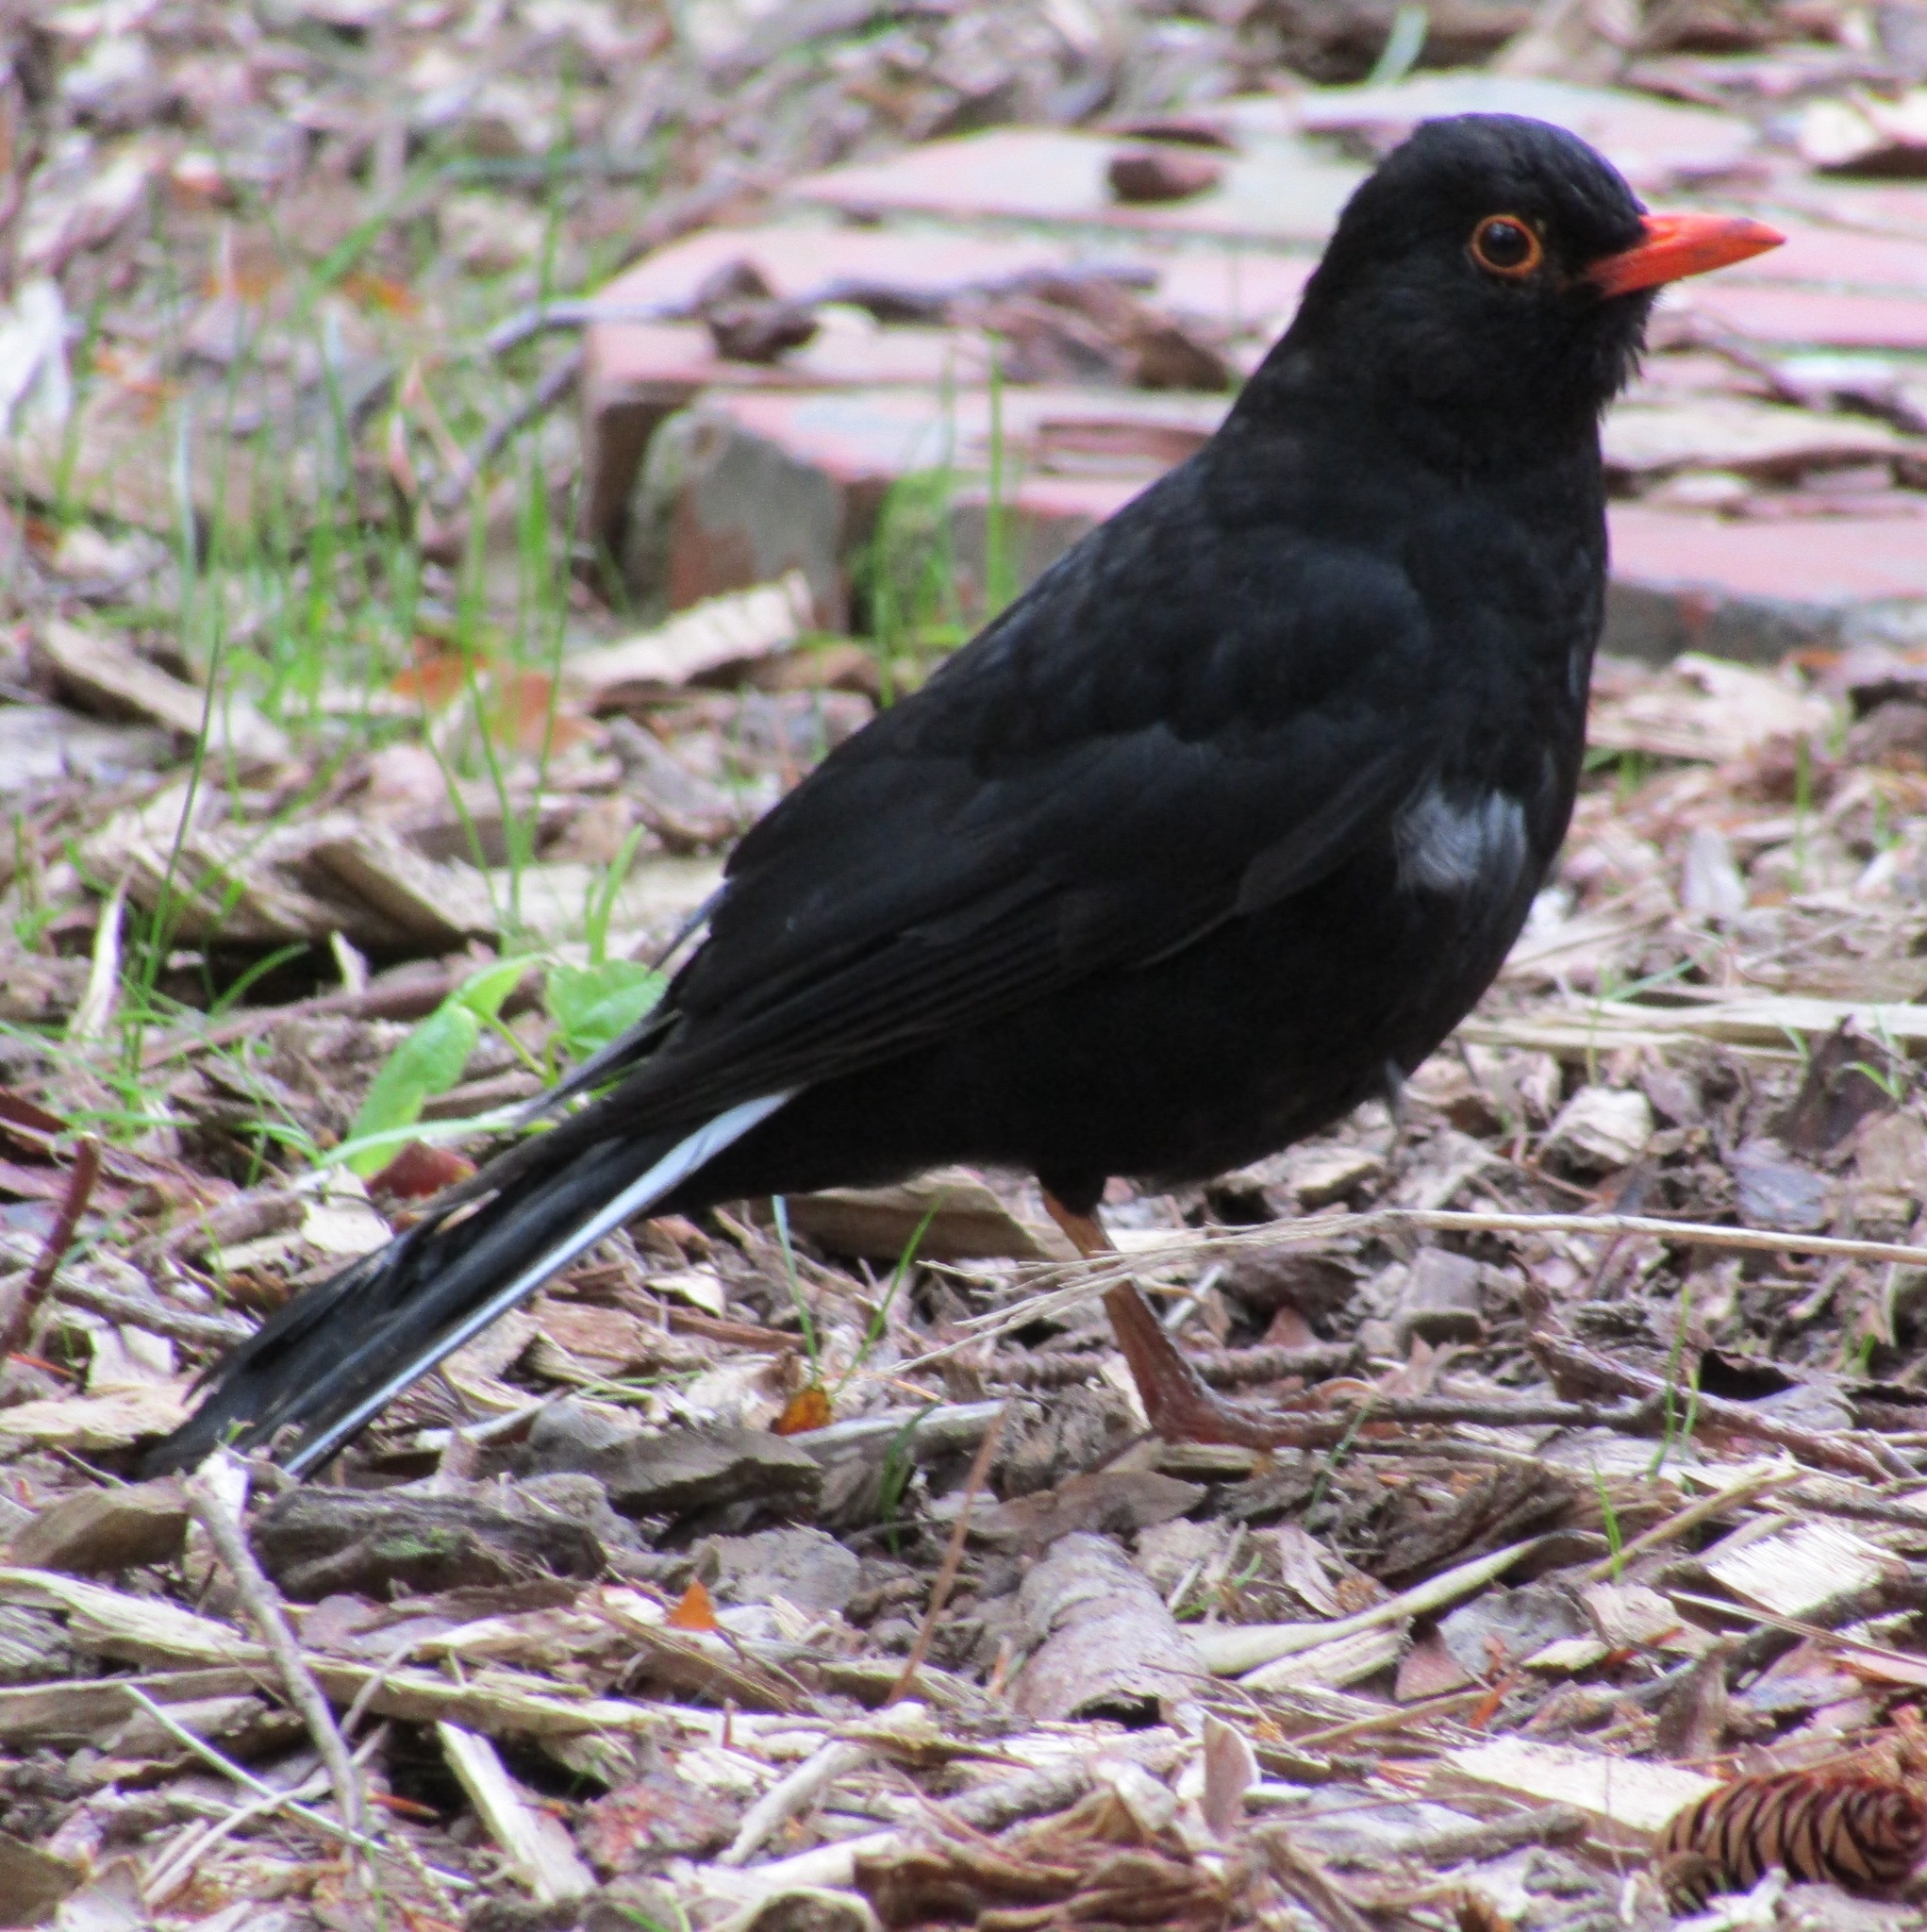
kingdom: Animalia
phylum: Chordata
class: Aves
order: Passeriformes
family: Turdidae
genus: Turdus
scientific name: Turdus merula
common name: Common blackbird
